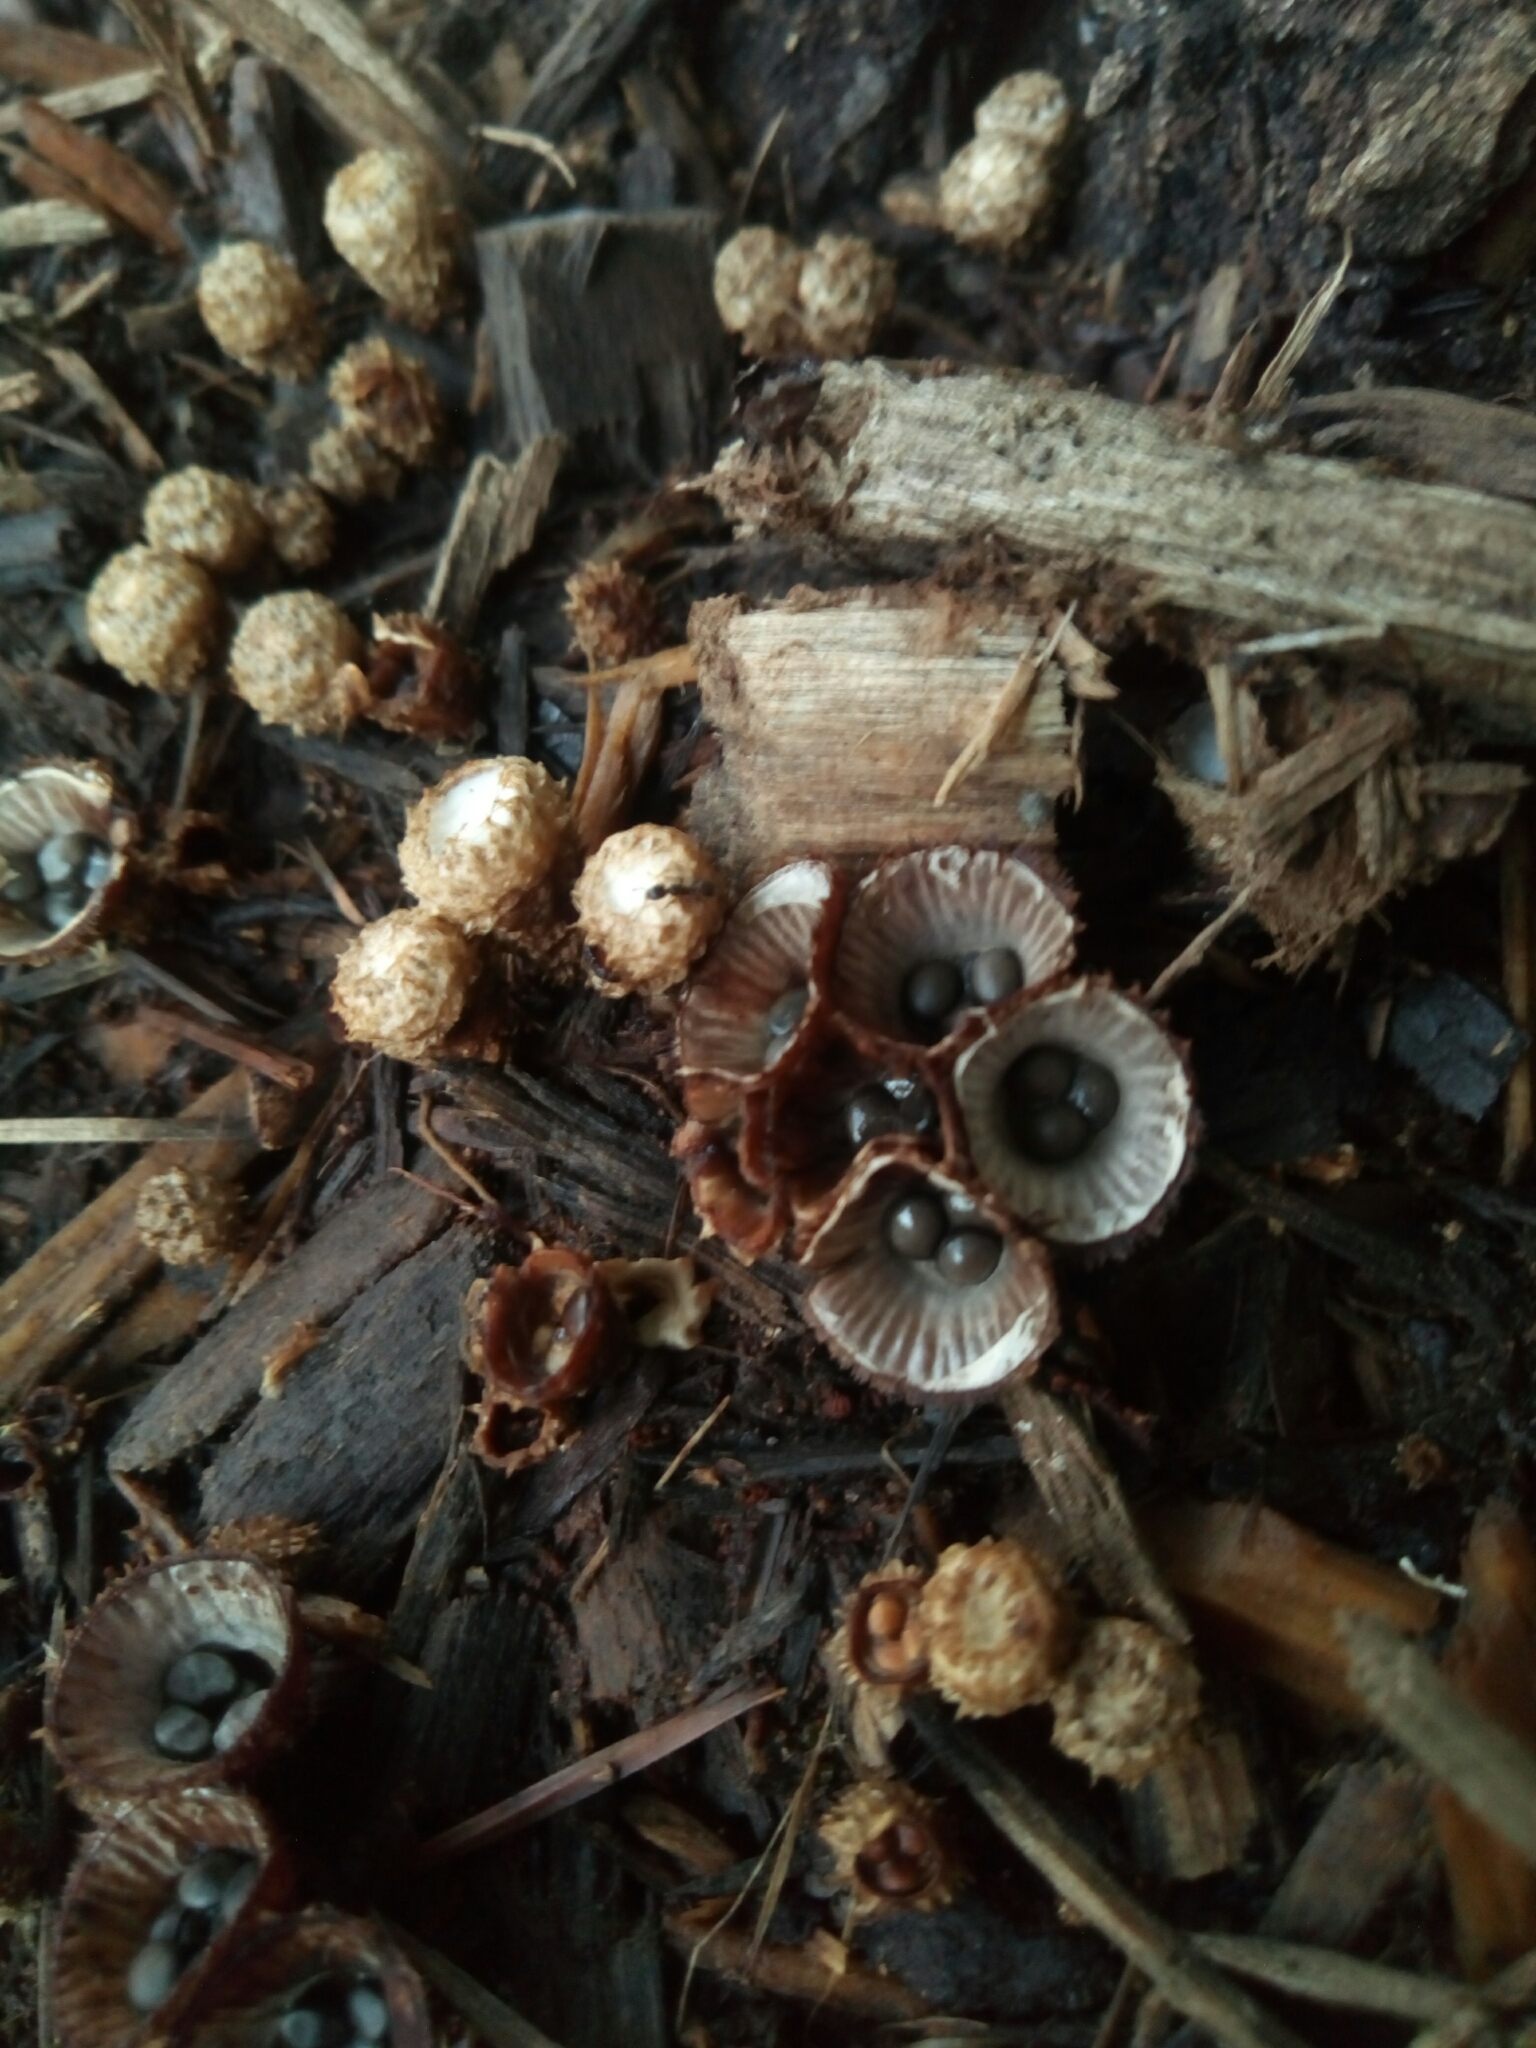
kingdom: Fungi
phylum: Basidiomycota
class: Agaricomycetes
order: Agaricales
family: Agaricaceae
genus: Cyathus
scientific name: Cyathus striatus
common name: Fluted bird's nest
